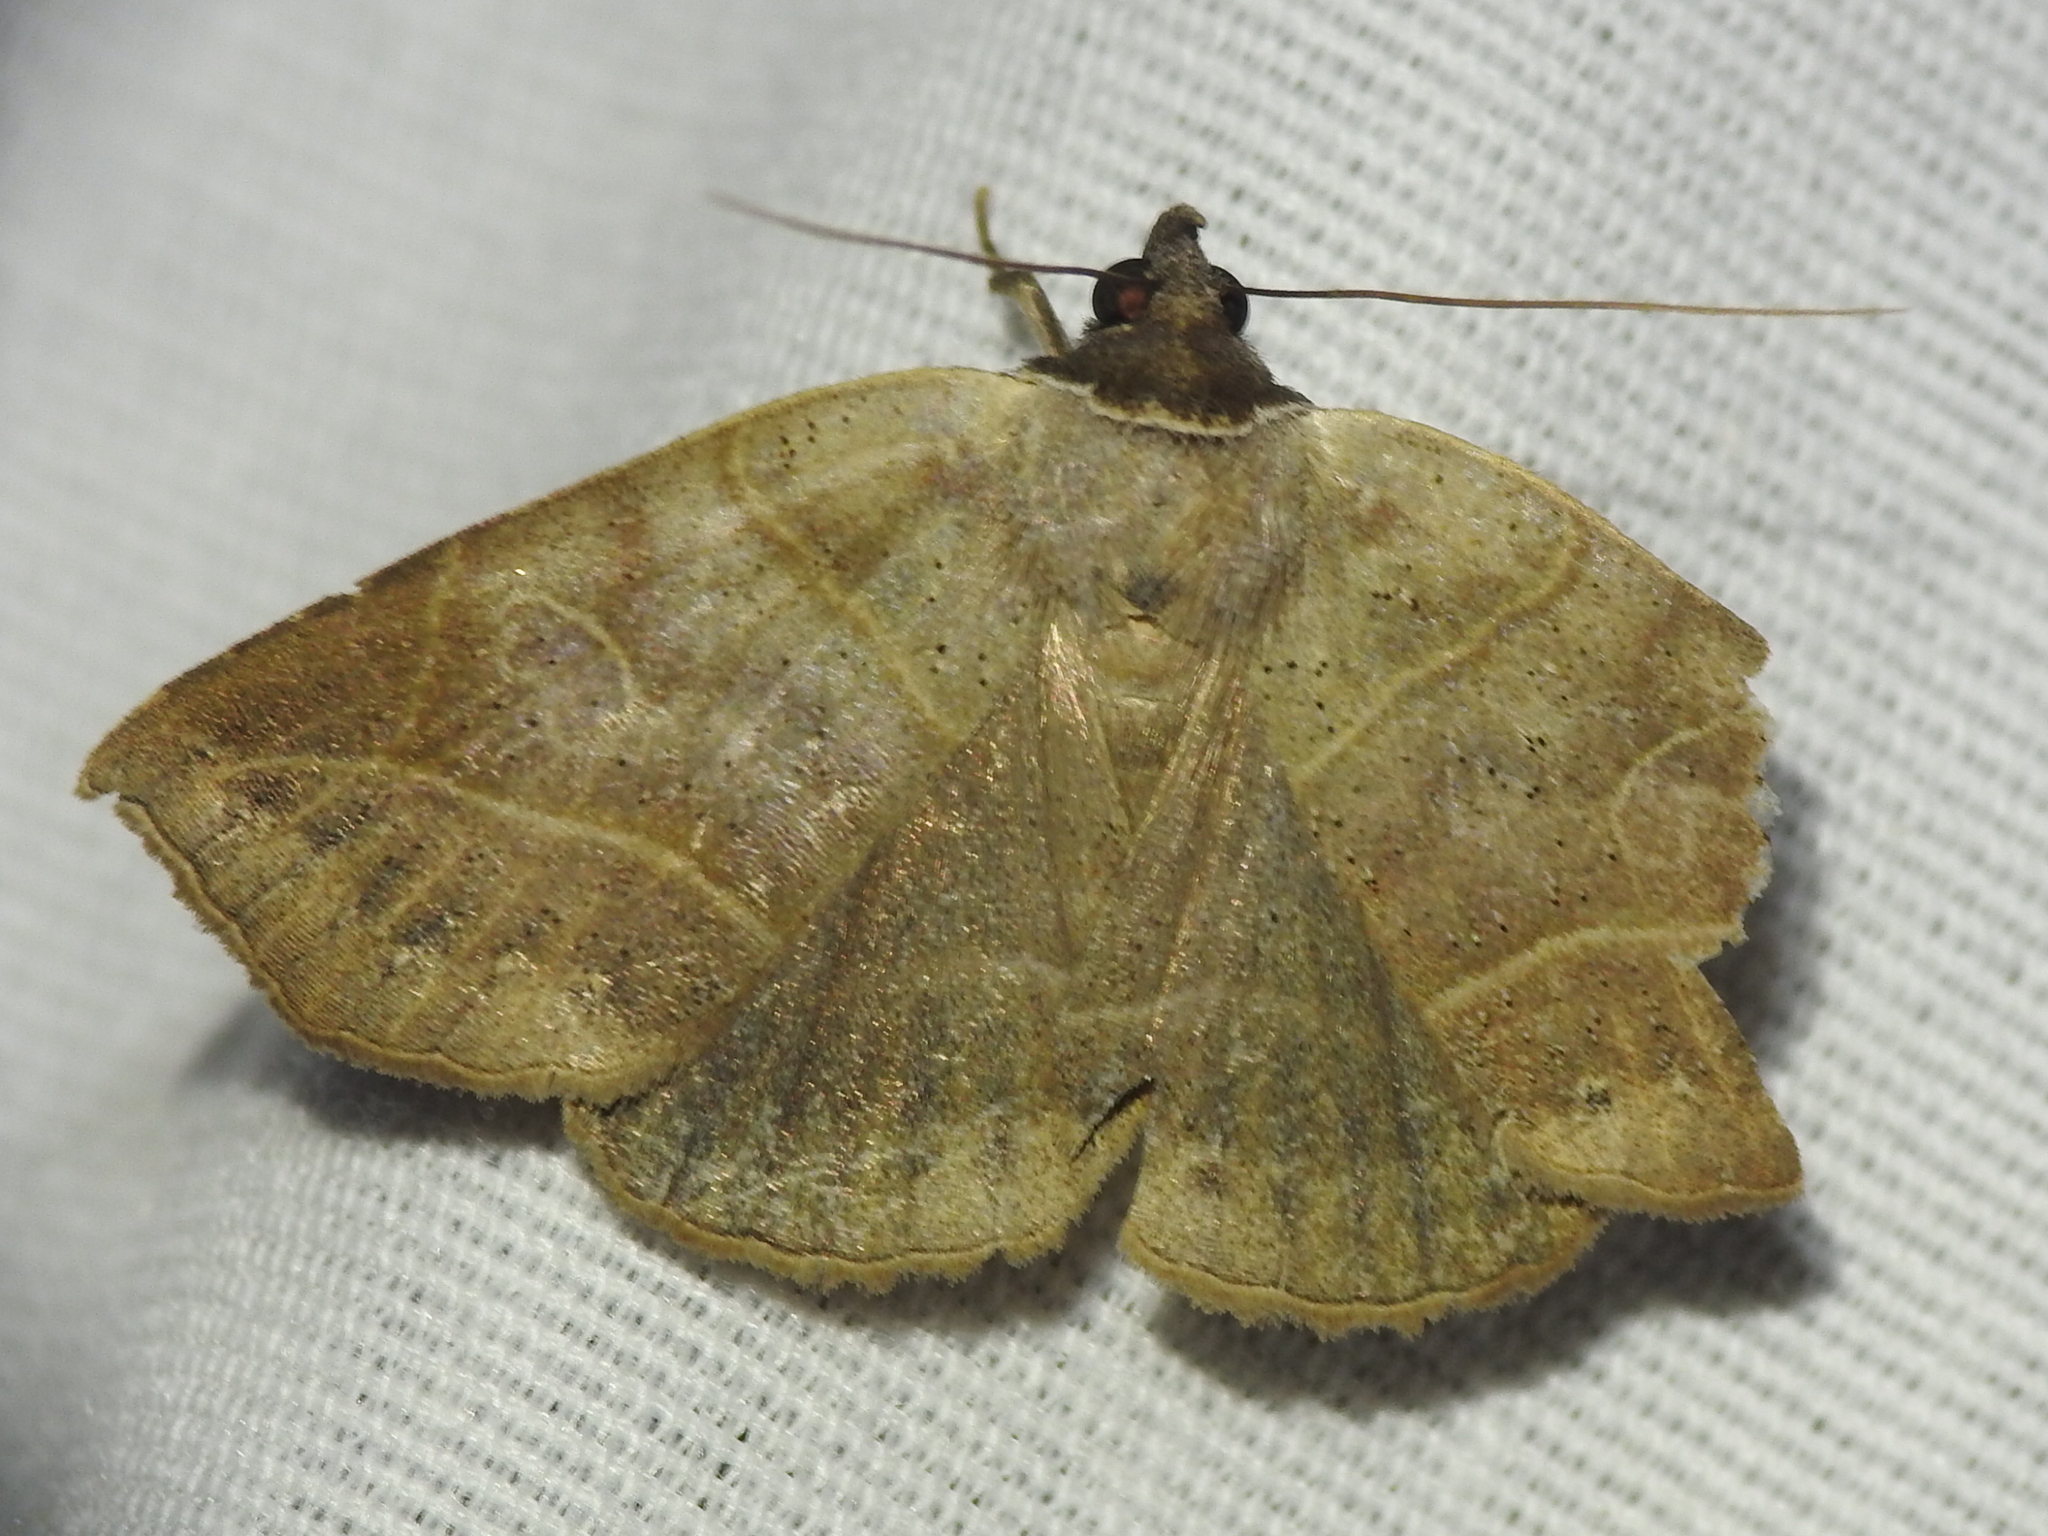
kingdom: Animalia
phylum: Arthropoda
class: Insecta
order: Lepidoptera
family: Erebidae
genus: Isogona
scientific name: Isogona tenuis
